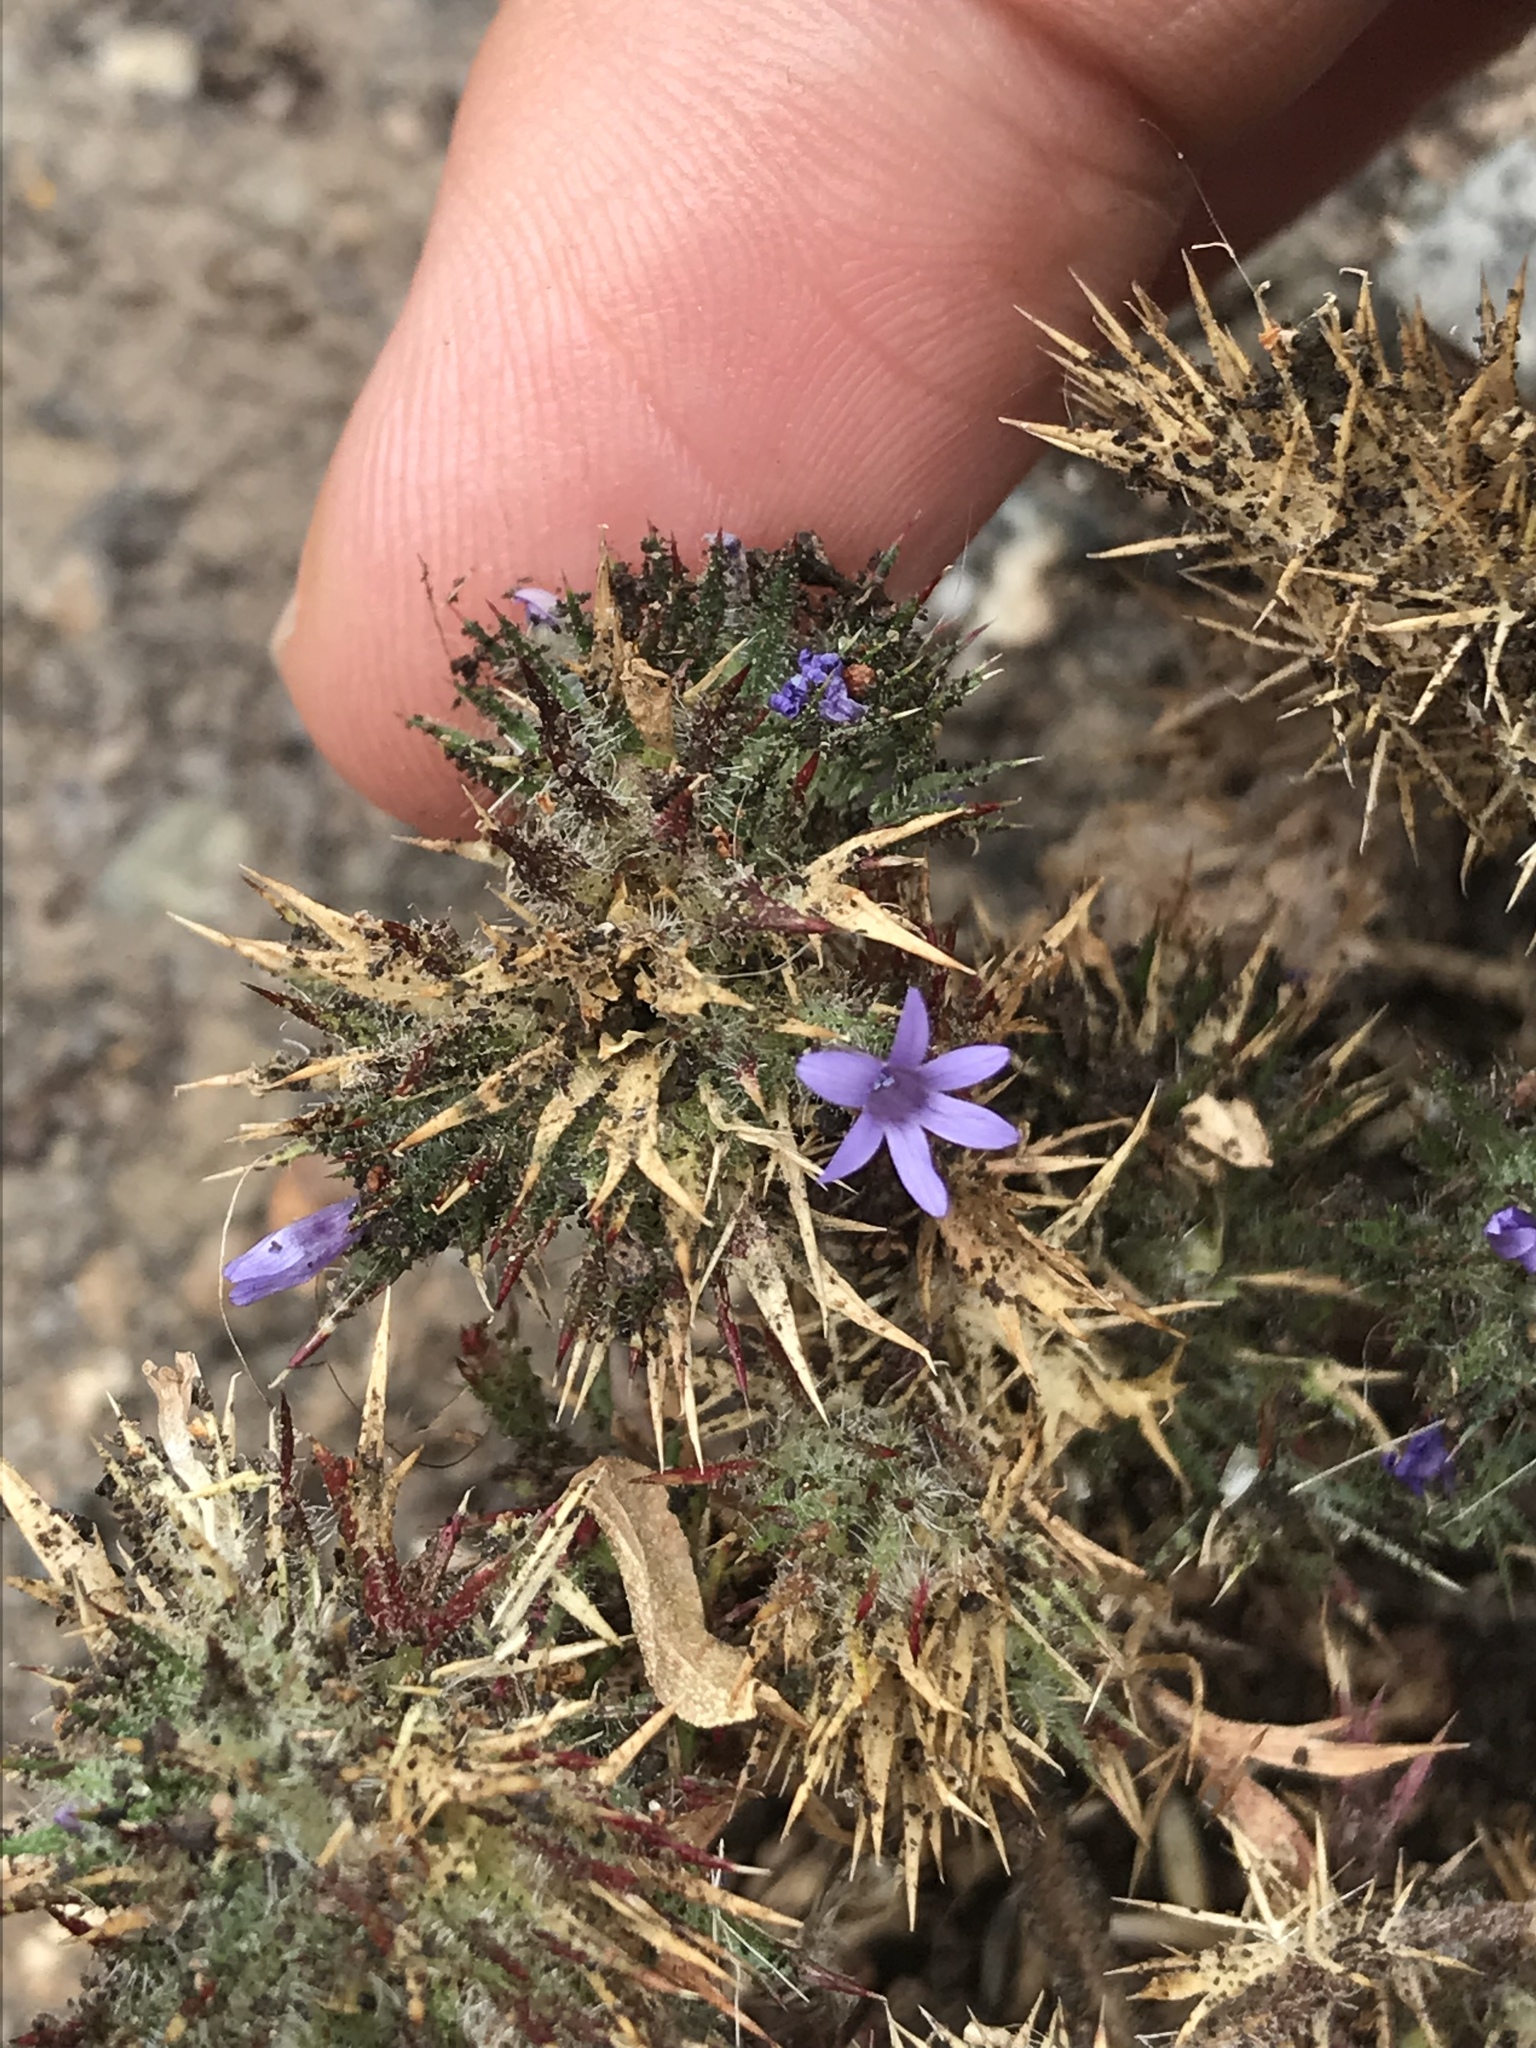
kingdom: Plantae
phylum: Tracheophyta
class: Magnoliopsida
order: Ericales
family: Polemoniaceae
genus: Navarretia
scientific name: Navarretia squarrosa
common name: Skunkweed
